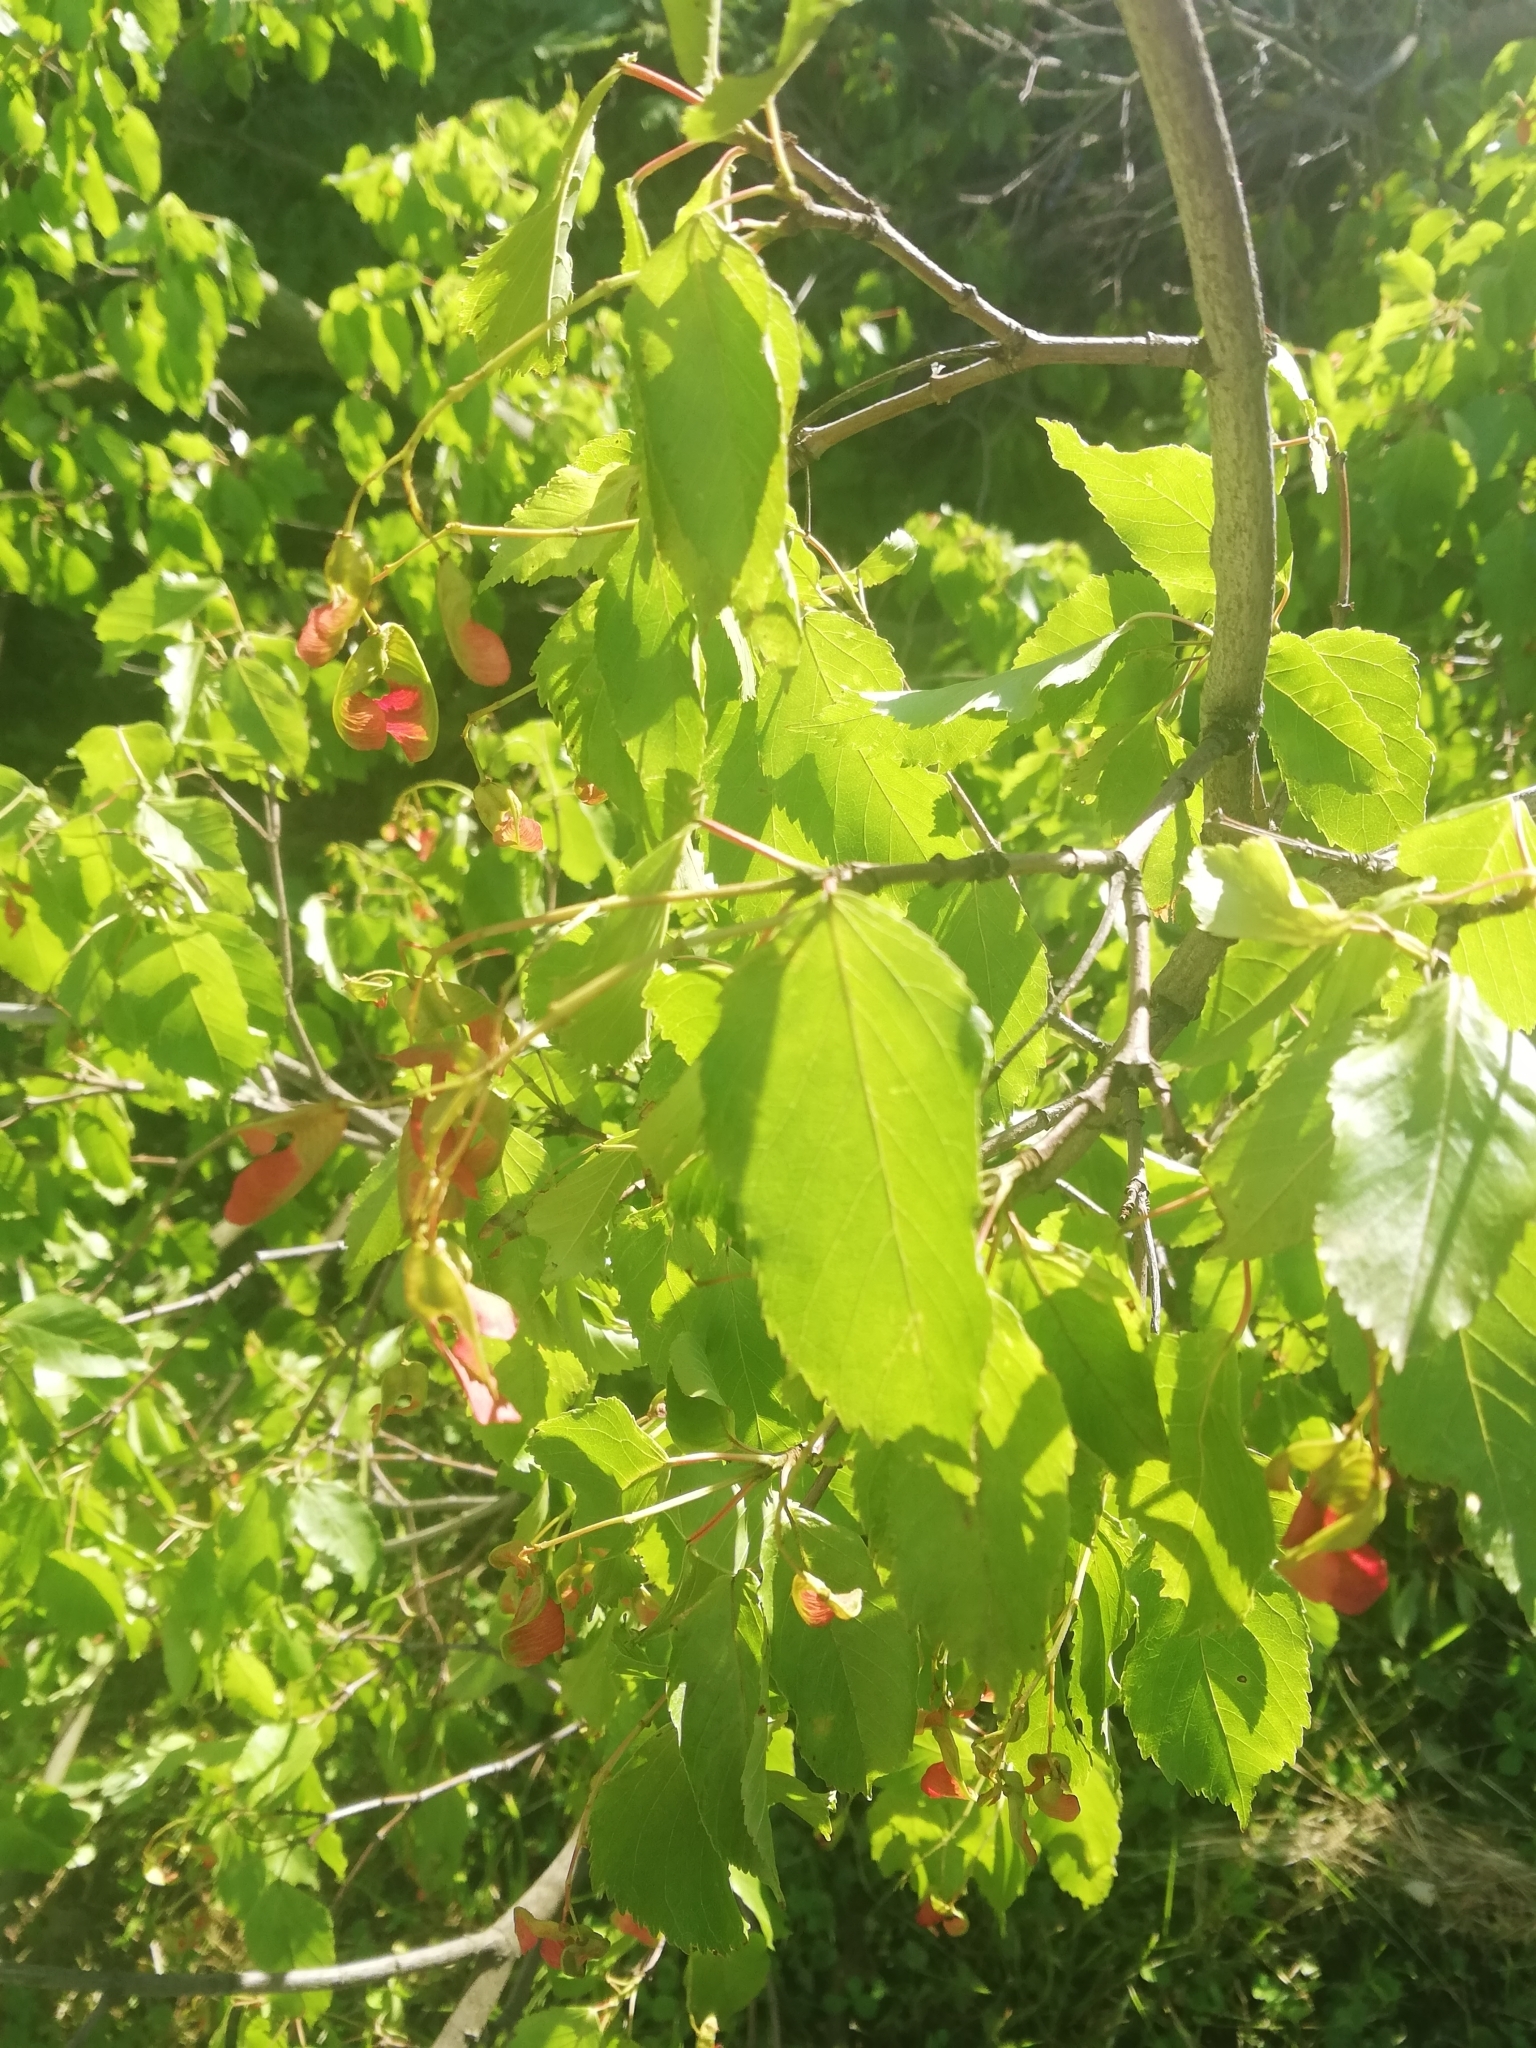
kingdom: Plantae
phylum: Tracheophyta
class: Magnoliopsida
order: Sapindales
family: Sapindaceae
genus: Acer
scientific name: Acer tataricum
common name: Tartar maple
